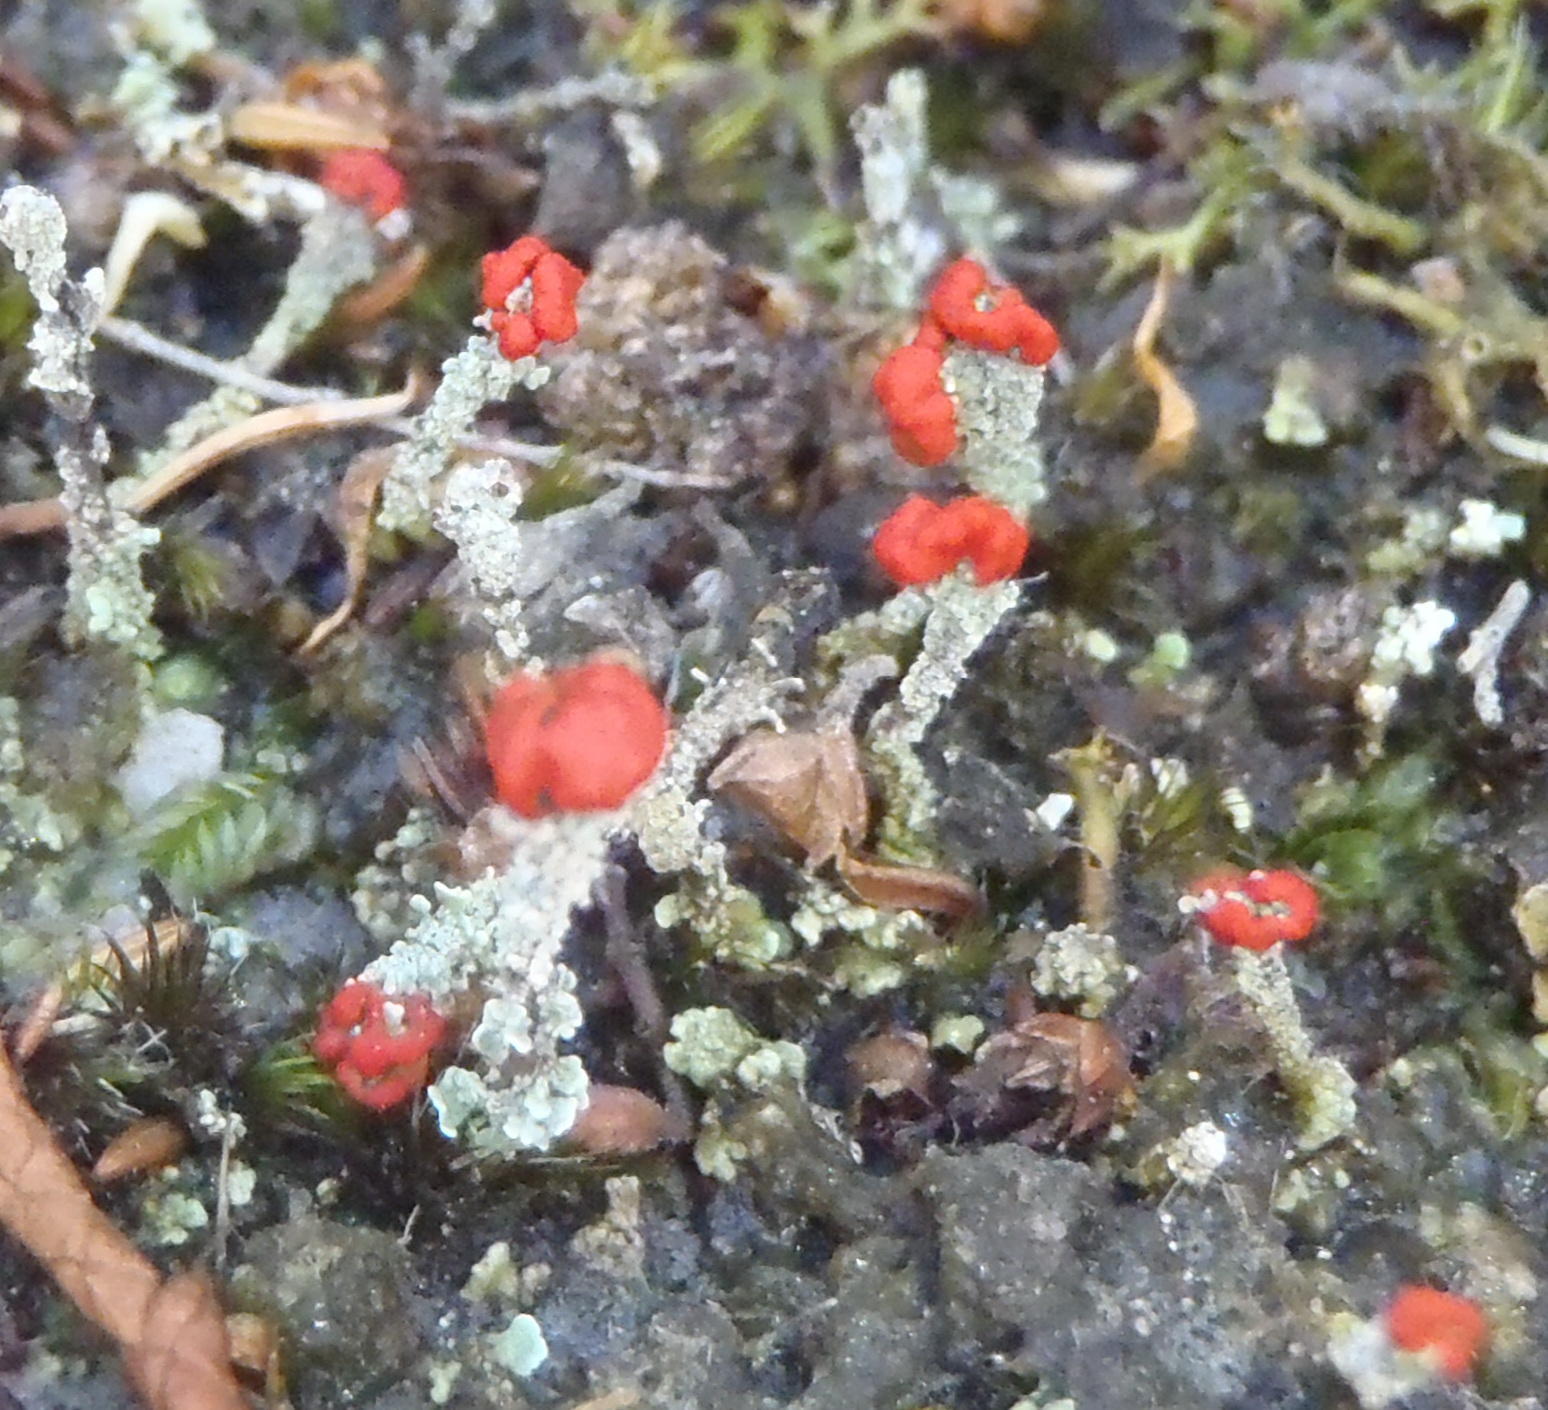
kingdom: Fungi
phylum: Ascomycota
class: Lecanoromycetes
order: Lecanorales
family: Cladoniaceae
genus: Cladonia
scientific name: Cladonia floerkeana
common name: Gritty british soldiers lichen
